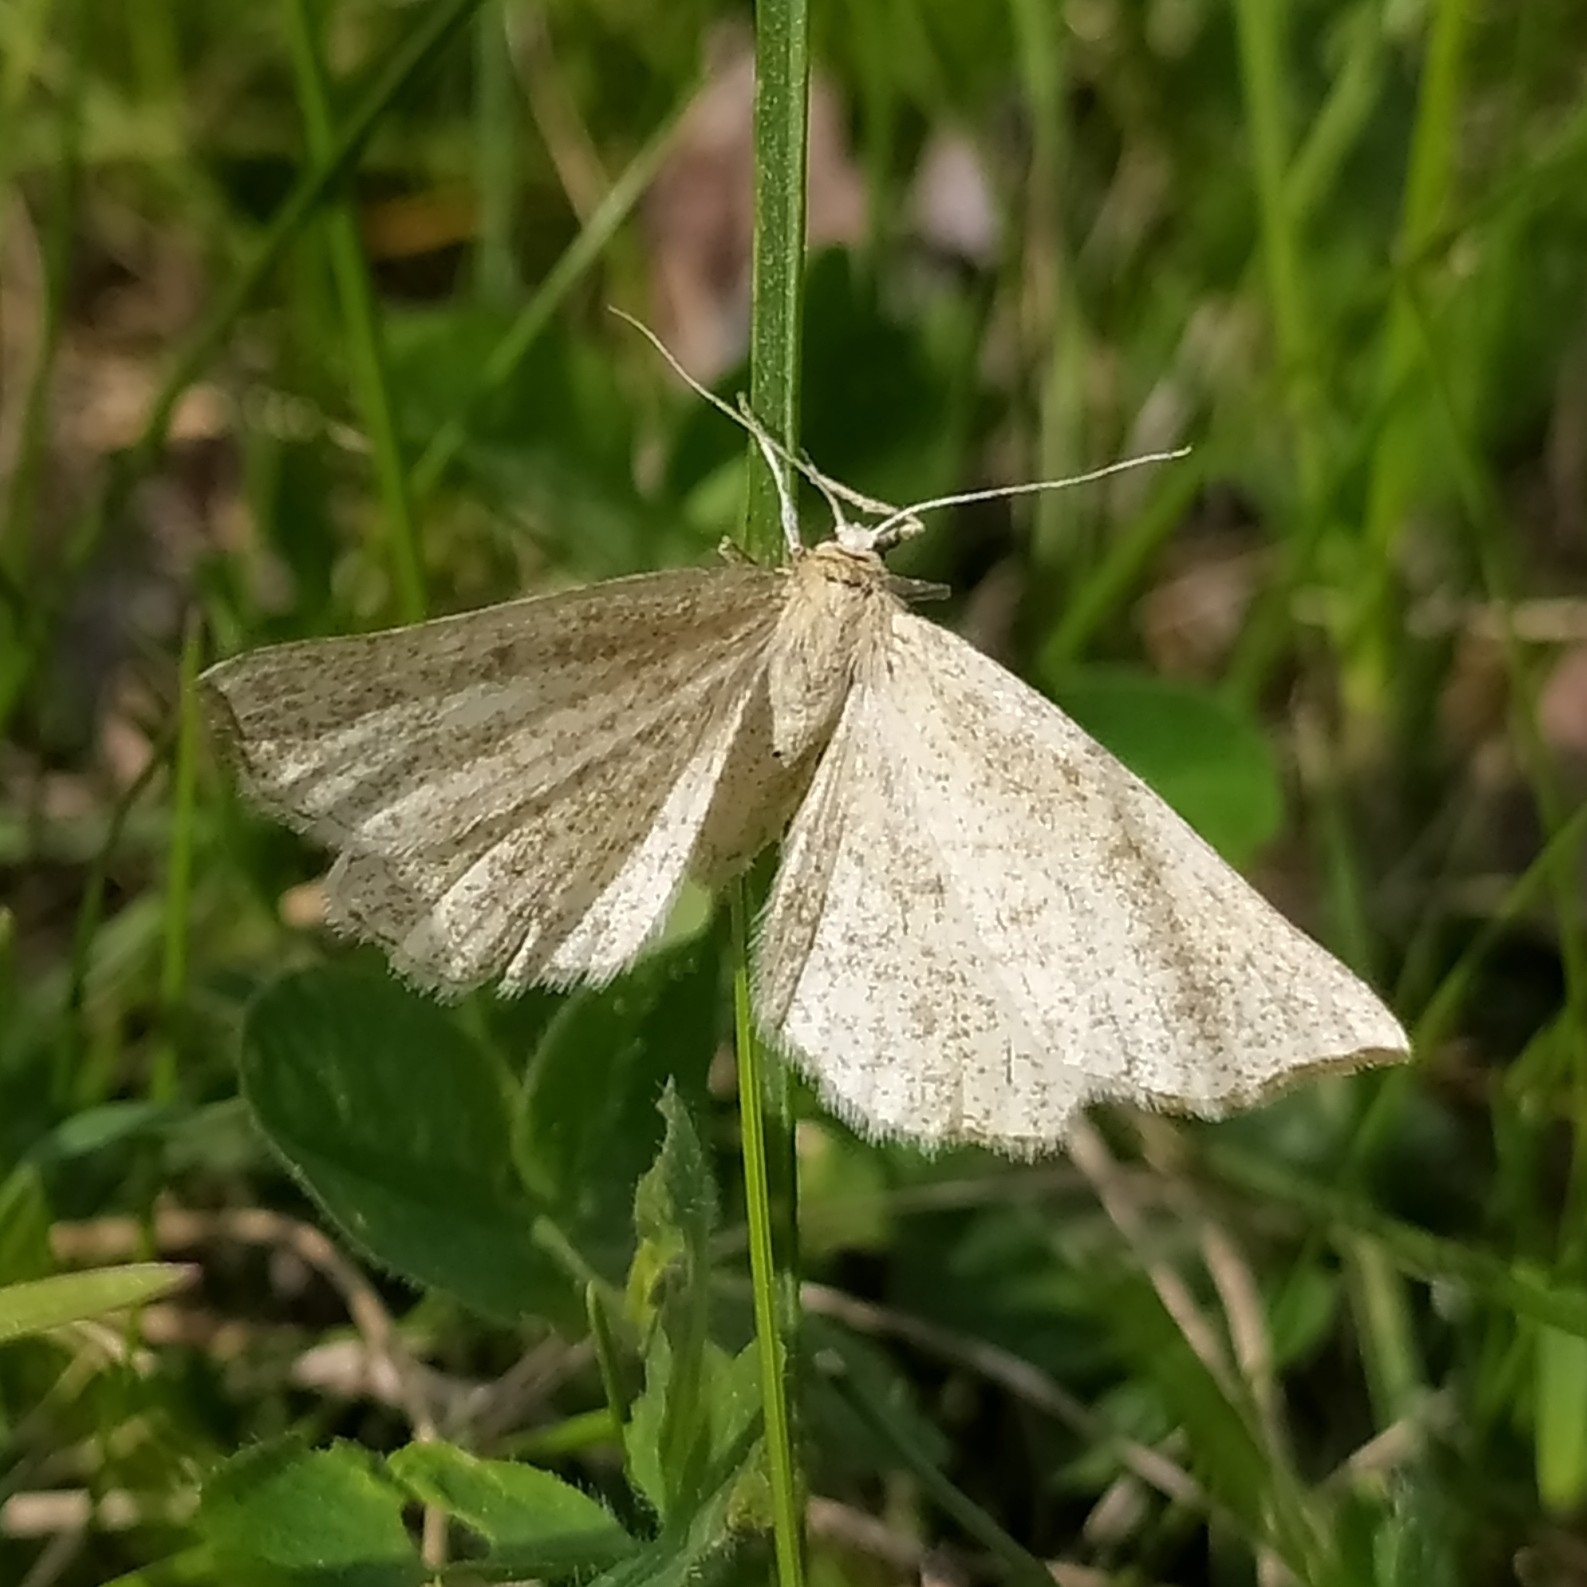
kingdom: Animalia
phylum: Arthropoda
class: Insecta
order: Lepidoptera
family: Geometridae
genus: Hypoxystis
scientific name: Hypoxystis pluviaria
